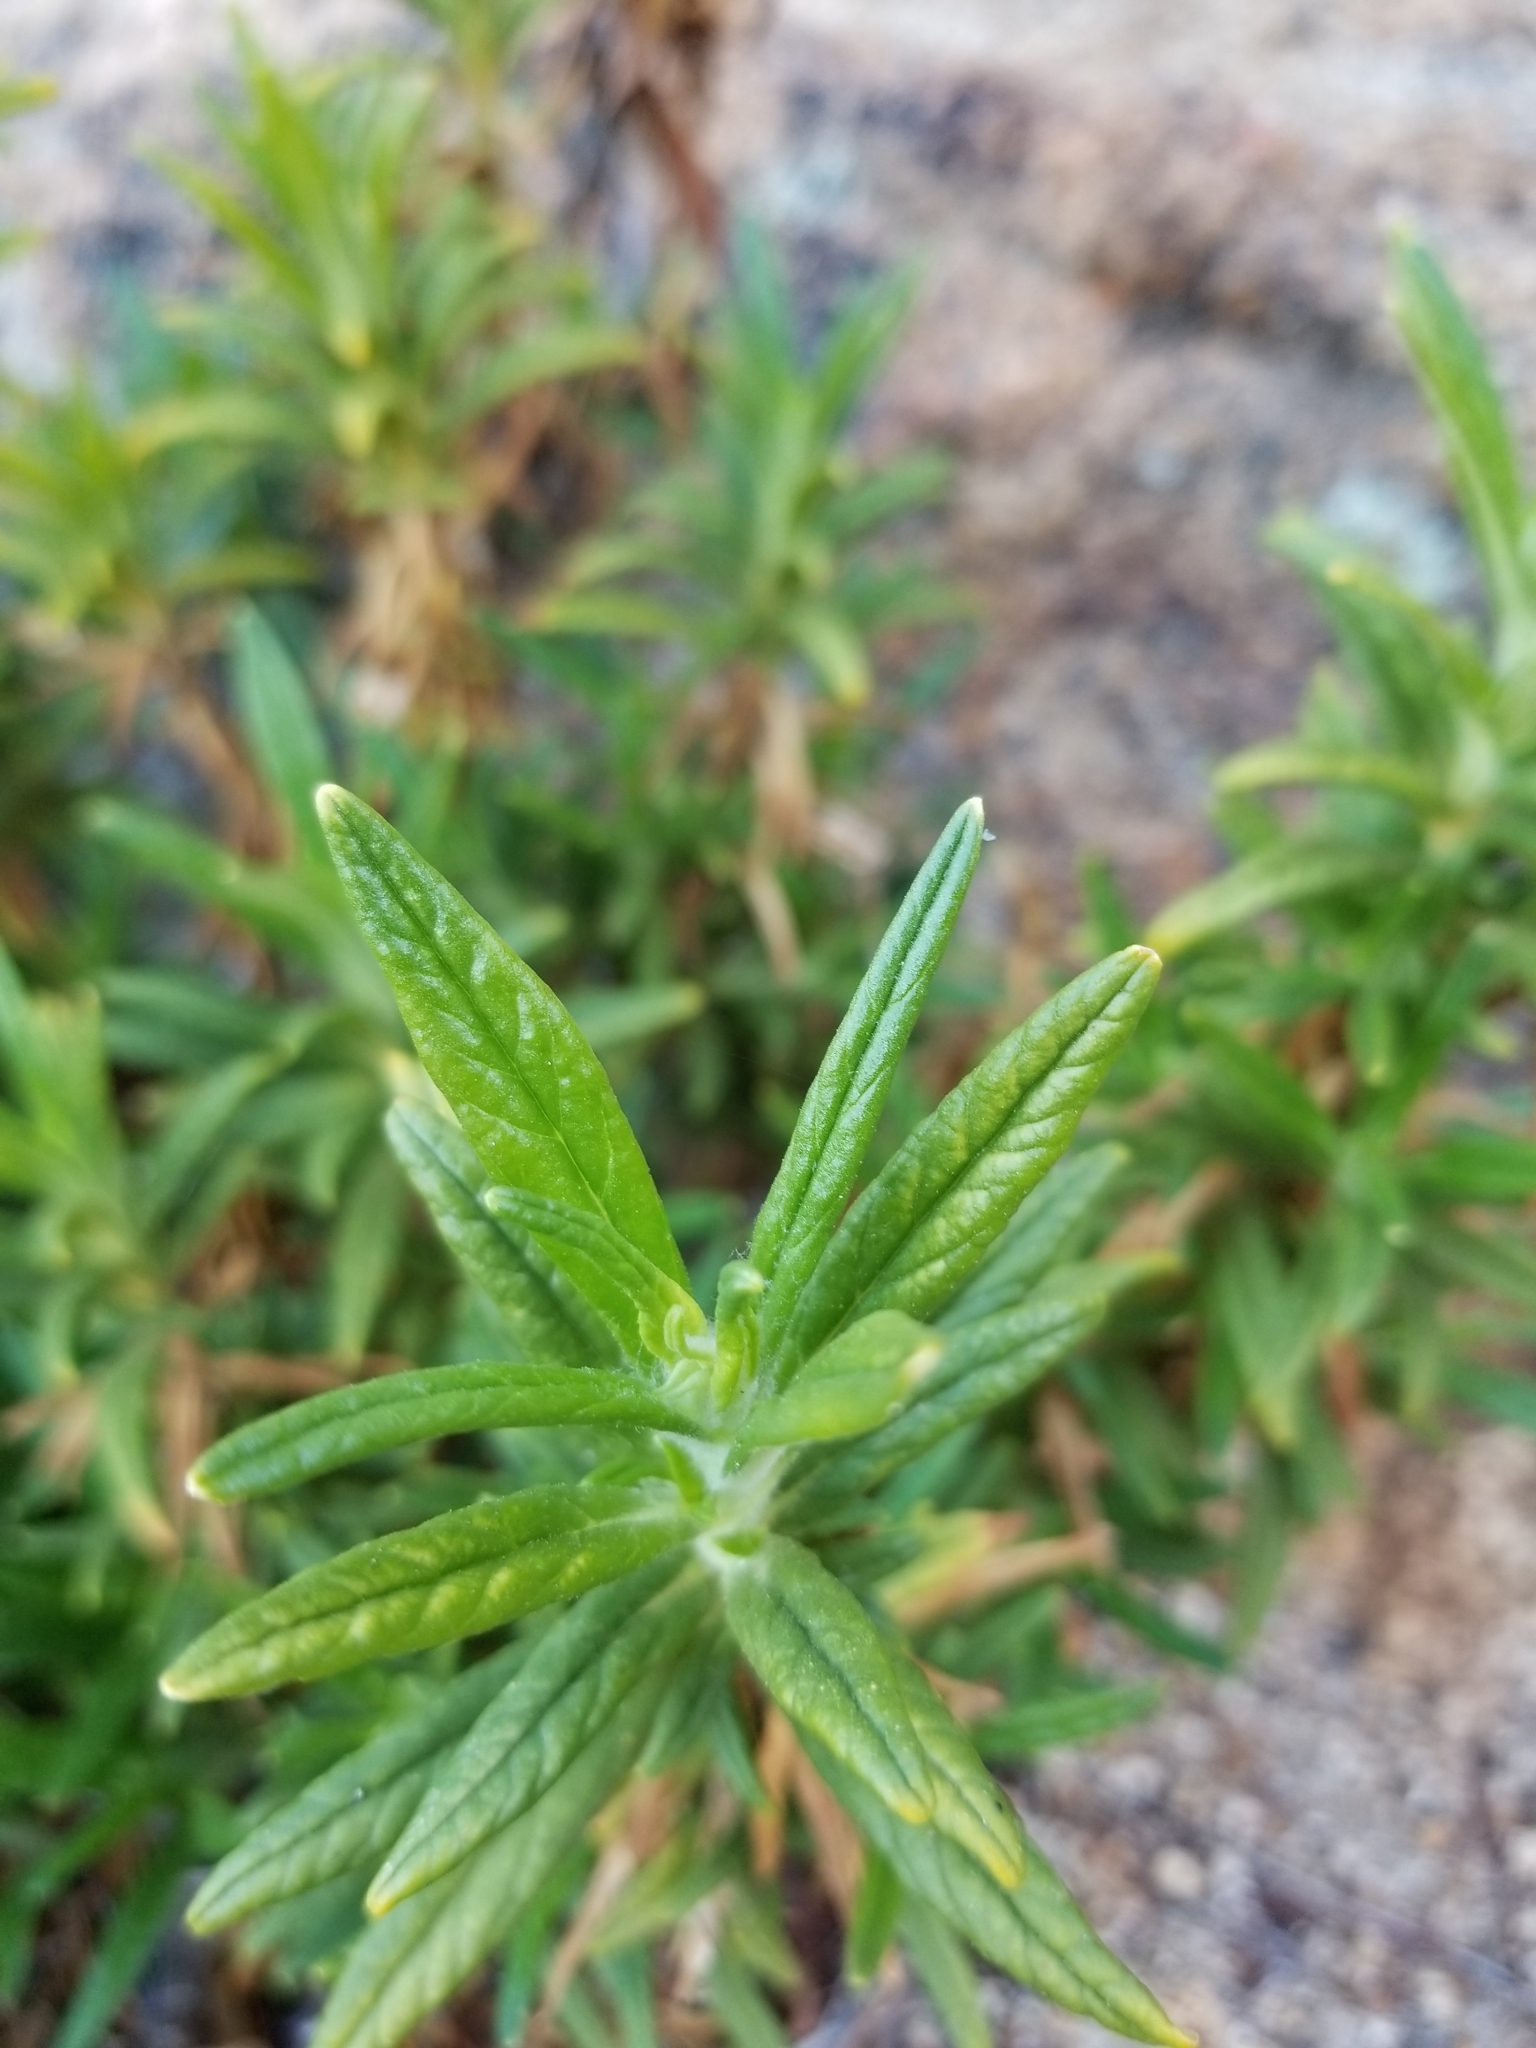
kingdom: Plantae
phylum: Tracheophyta
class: Magnoliopsida
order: Lamiales
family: Phrymaceae
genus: Diplacus
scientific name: Diplacus longiflorus
